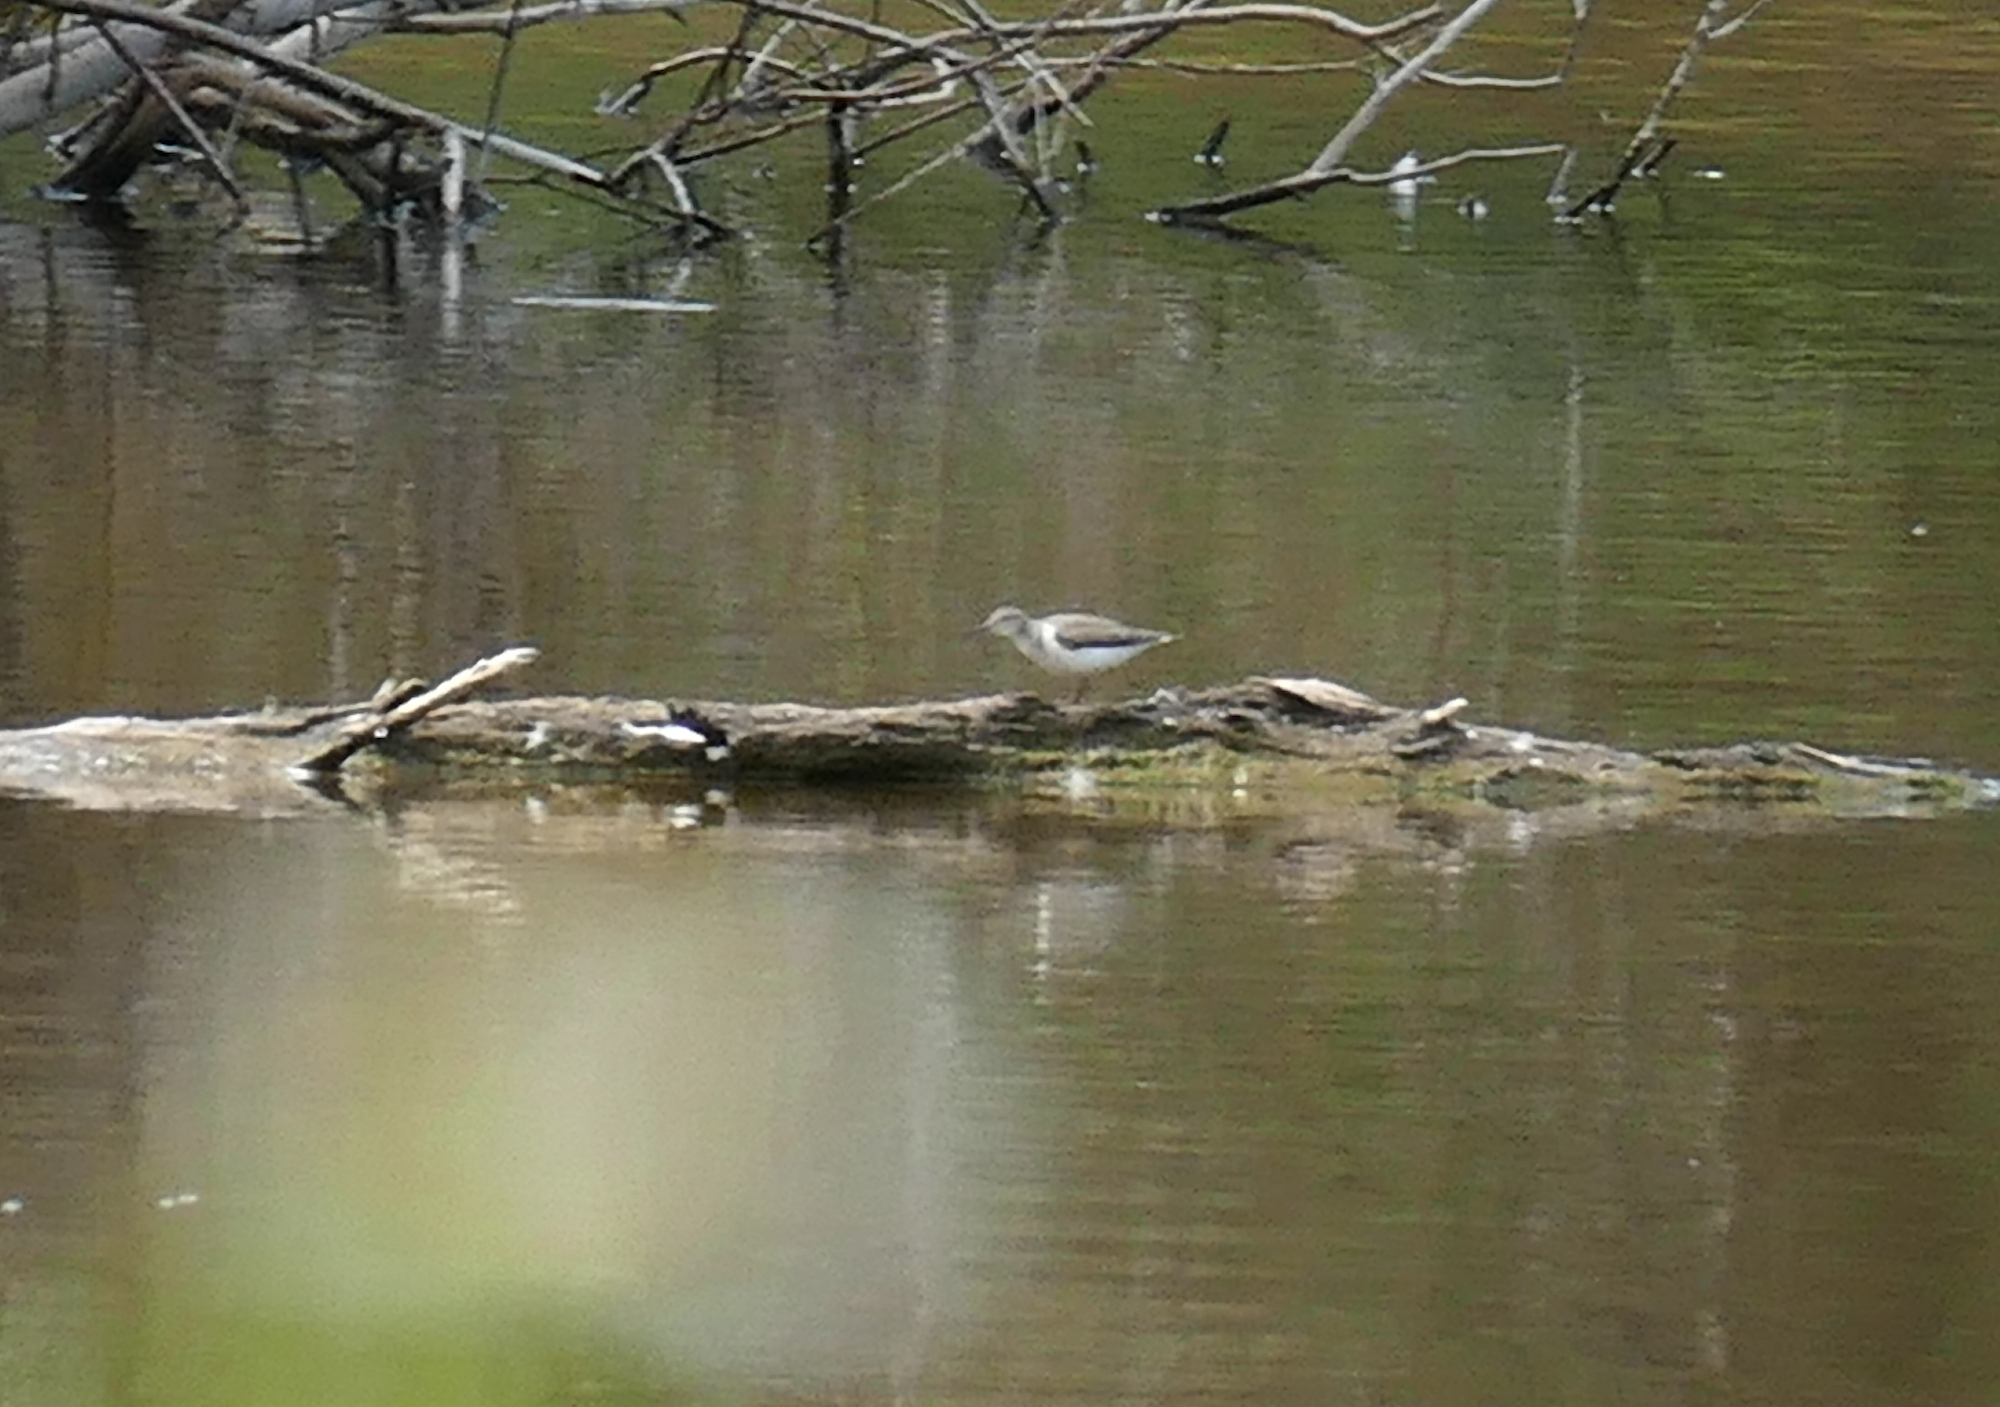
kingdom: Animalia
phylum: Chordata
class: Aves
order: Charadriiformes
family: Scolopacidae
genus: Actitis
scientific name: Actitis macularius
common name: Spotted sandpiper
